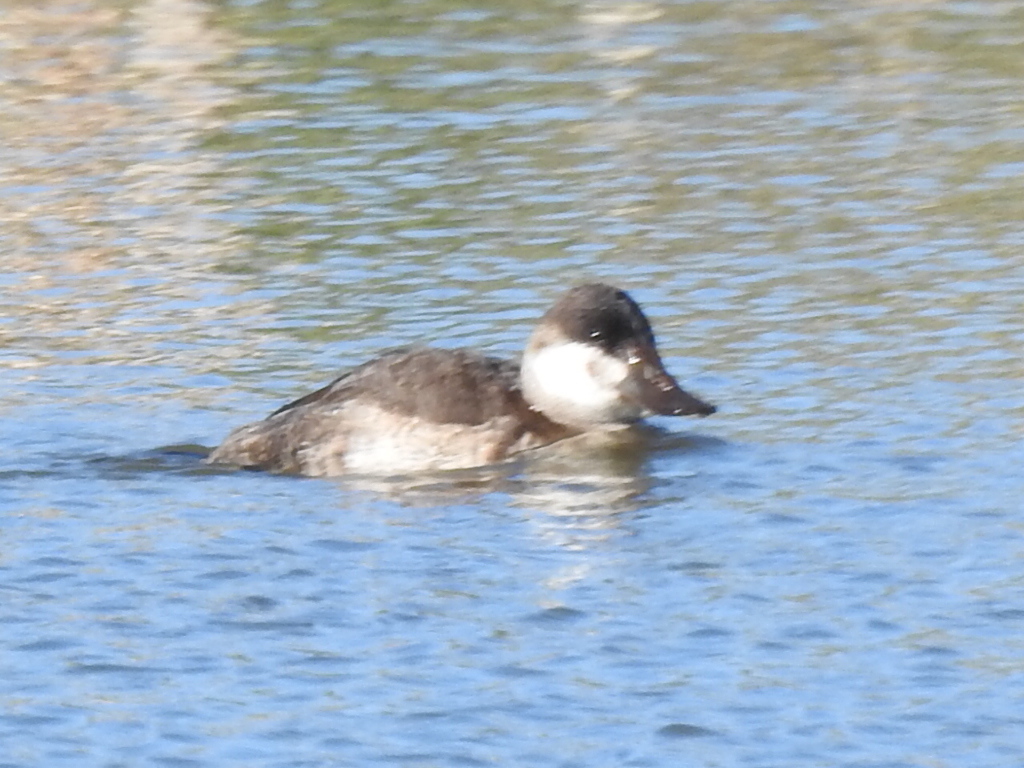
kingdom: Animalia
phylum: Chordata
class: Aves
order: Anseriformes
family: Anatidae
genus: Oxyura
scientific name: Oxyura jamaicensis
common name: Ruddy duck
